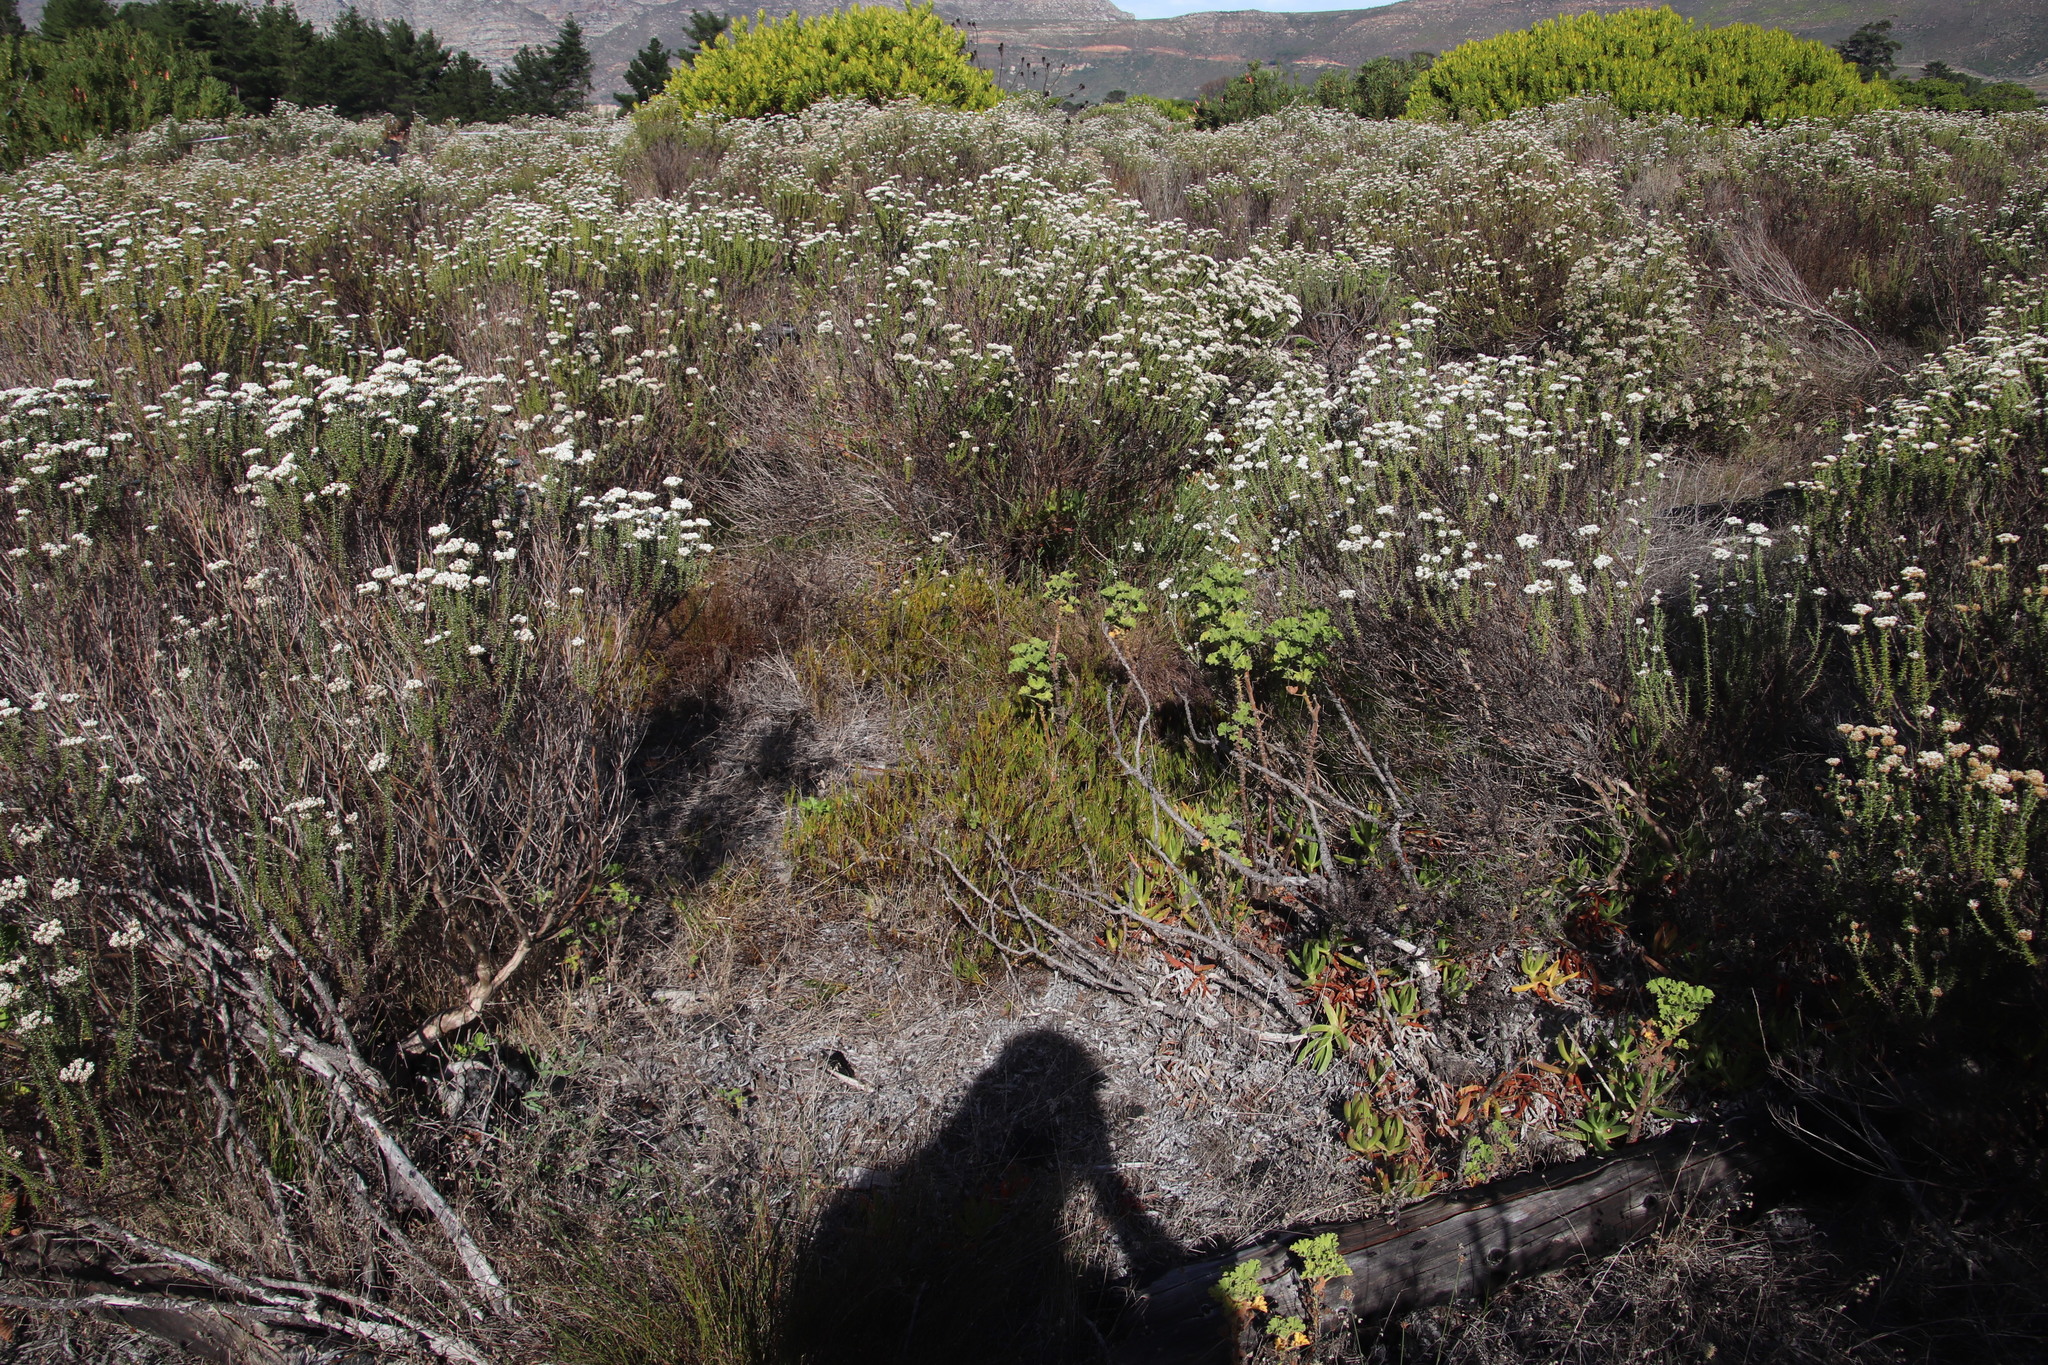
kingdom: Plantae
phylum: Tracheophyta
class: Magnoliopsida
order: Caryophyllales
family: Aizoaceae
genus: Acrosanthes
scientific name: Acrosanthes teretifolia
